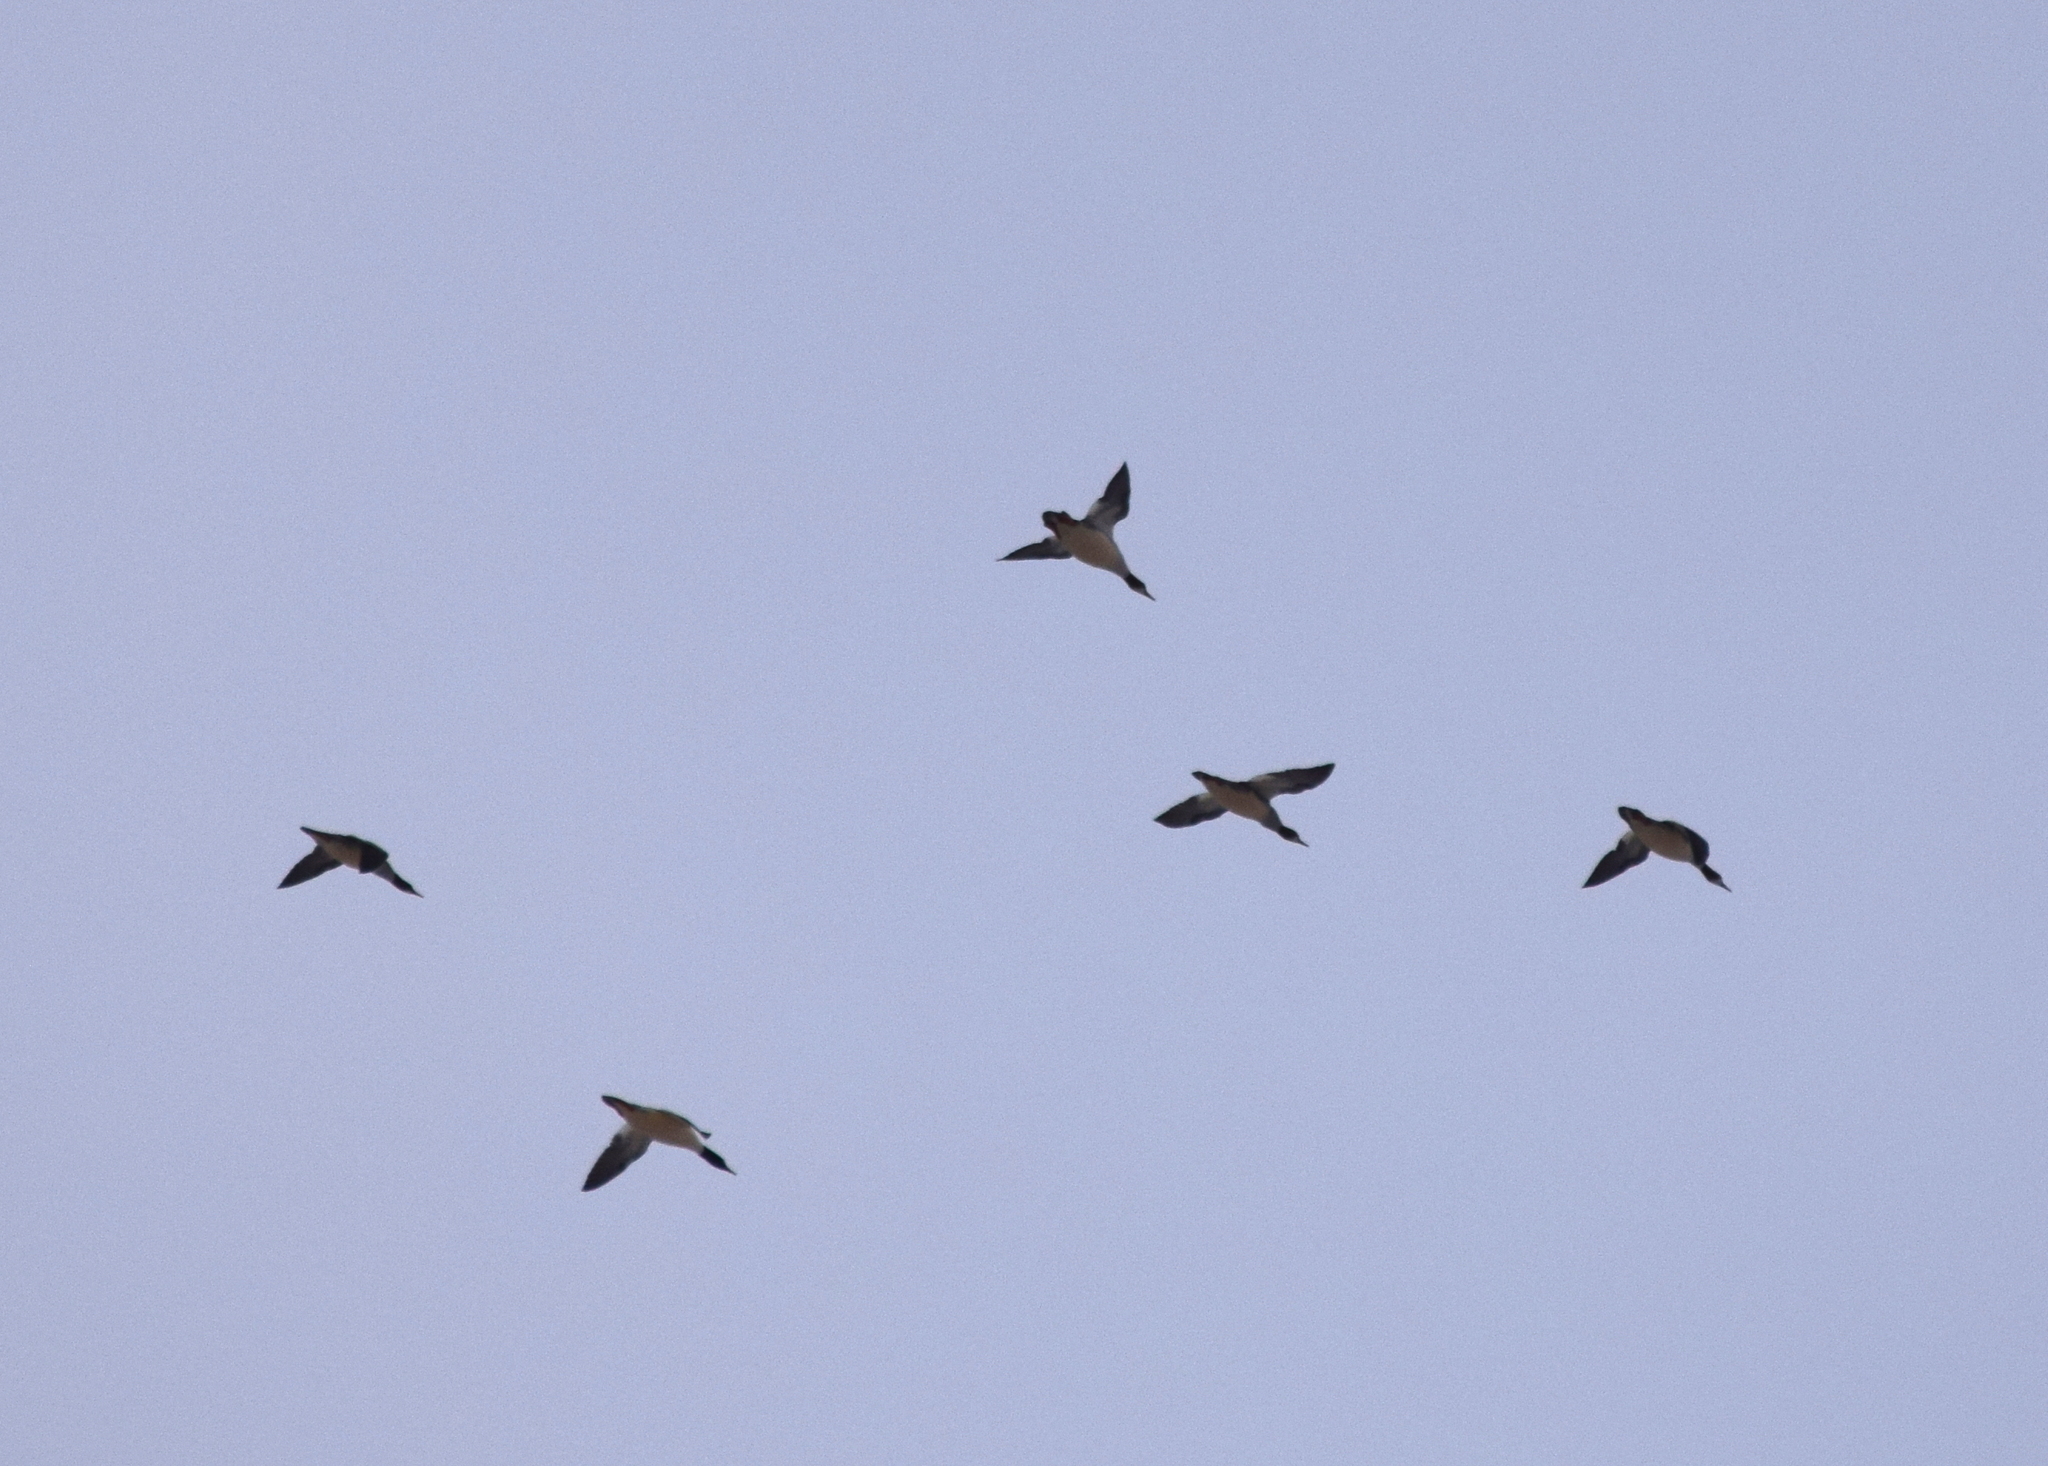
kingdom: Animalia
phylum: Chordata
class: Aves
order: Anseriformes
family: Anatidae
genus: Mergus
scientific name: Mergus merganser
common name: Common merganser
